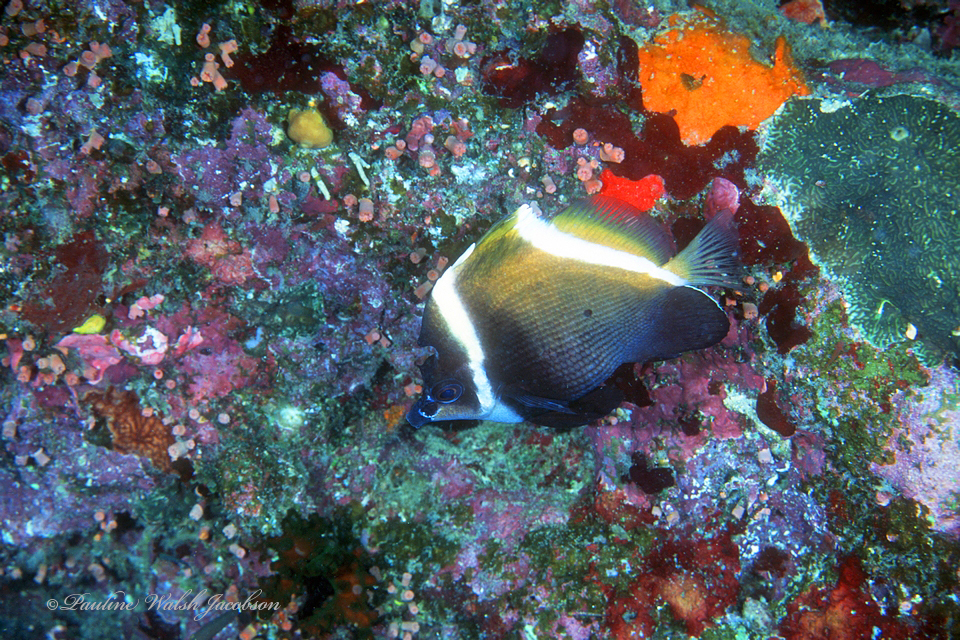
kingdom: Animalia
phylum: Chordata
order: Perciformes
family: Chaetodontidae
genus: Heniochus
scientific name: Heniochus varius
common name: Horned bannerfish
